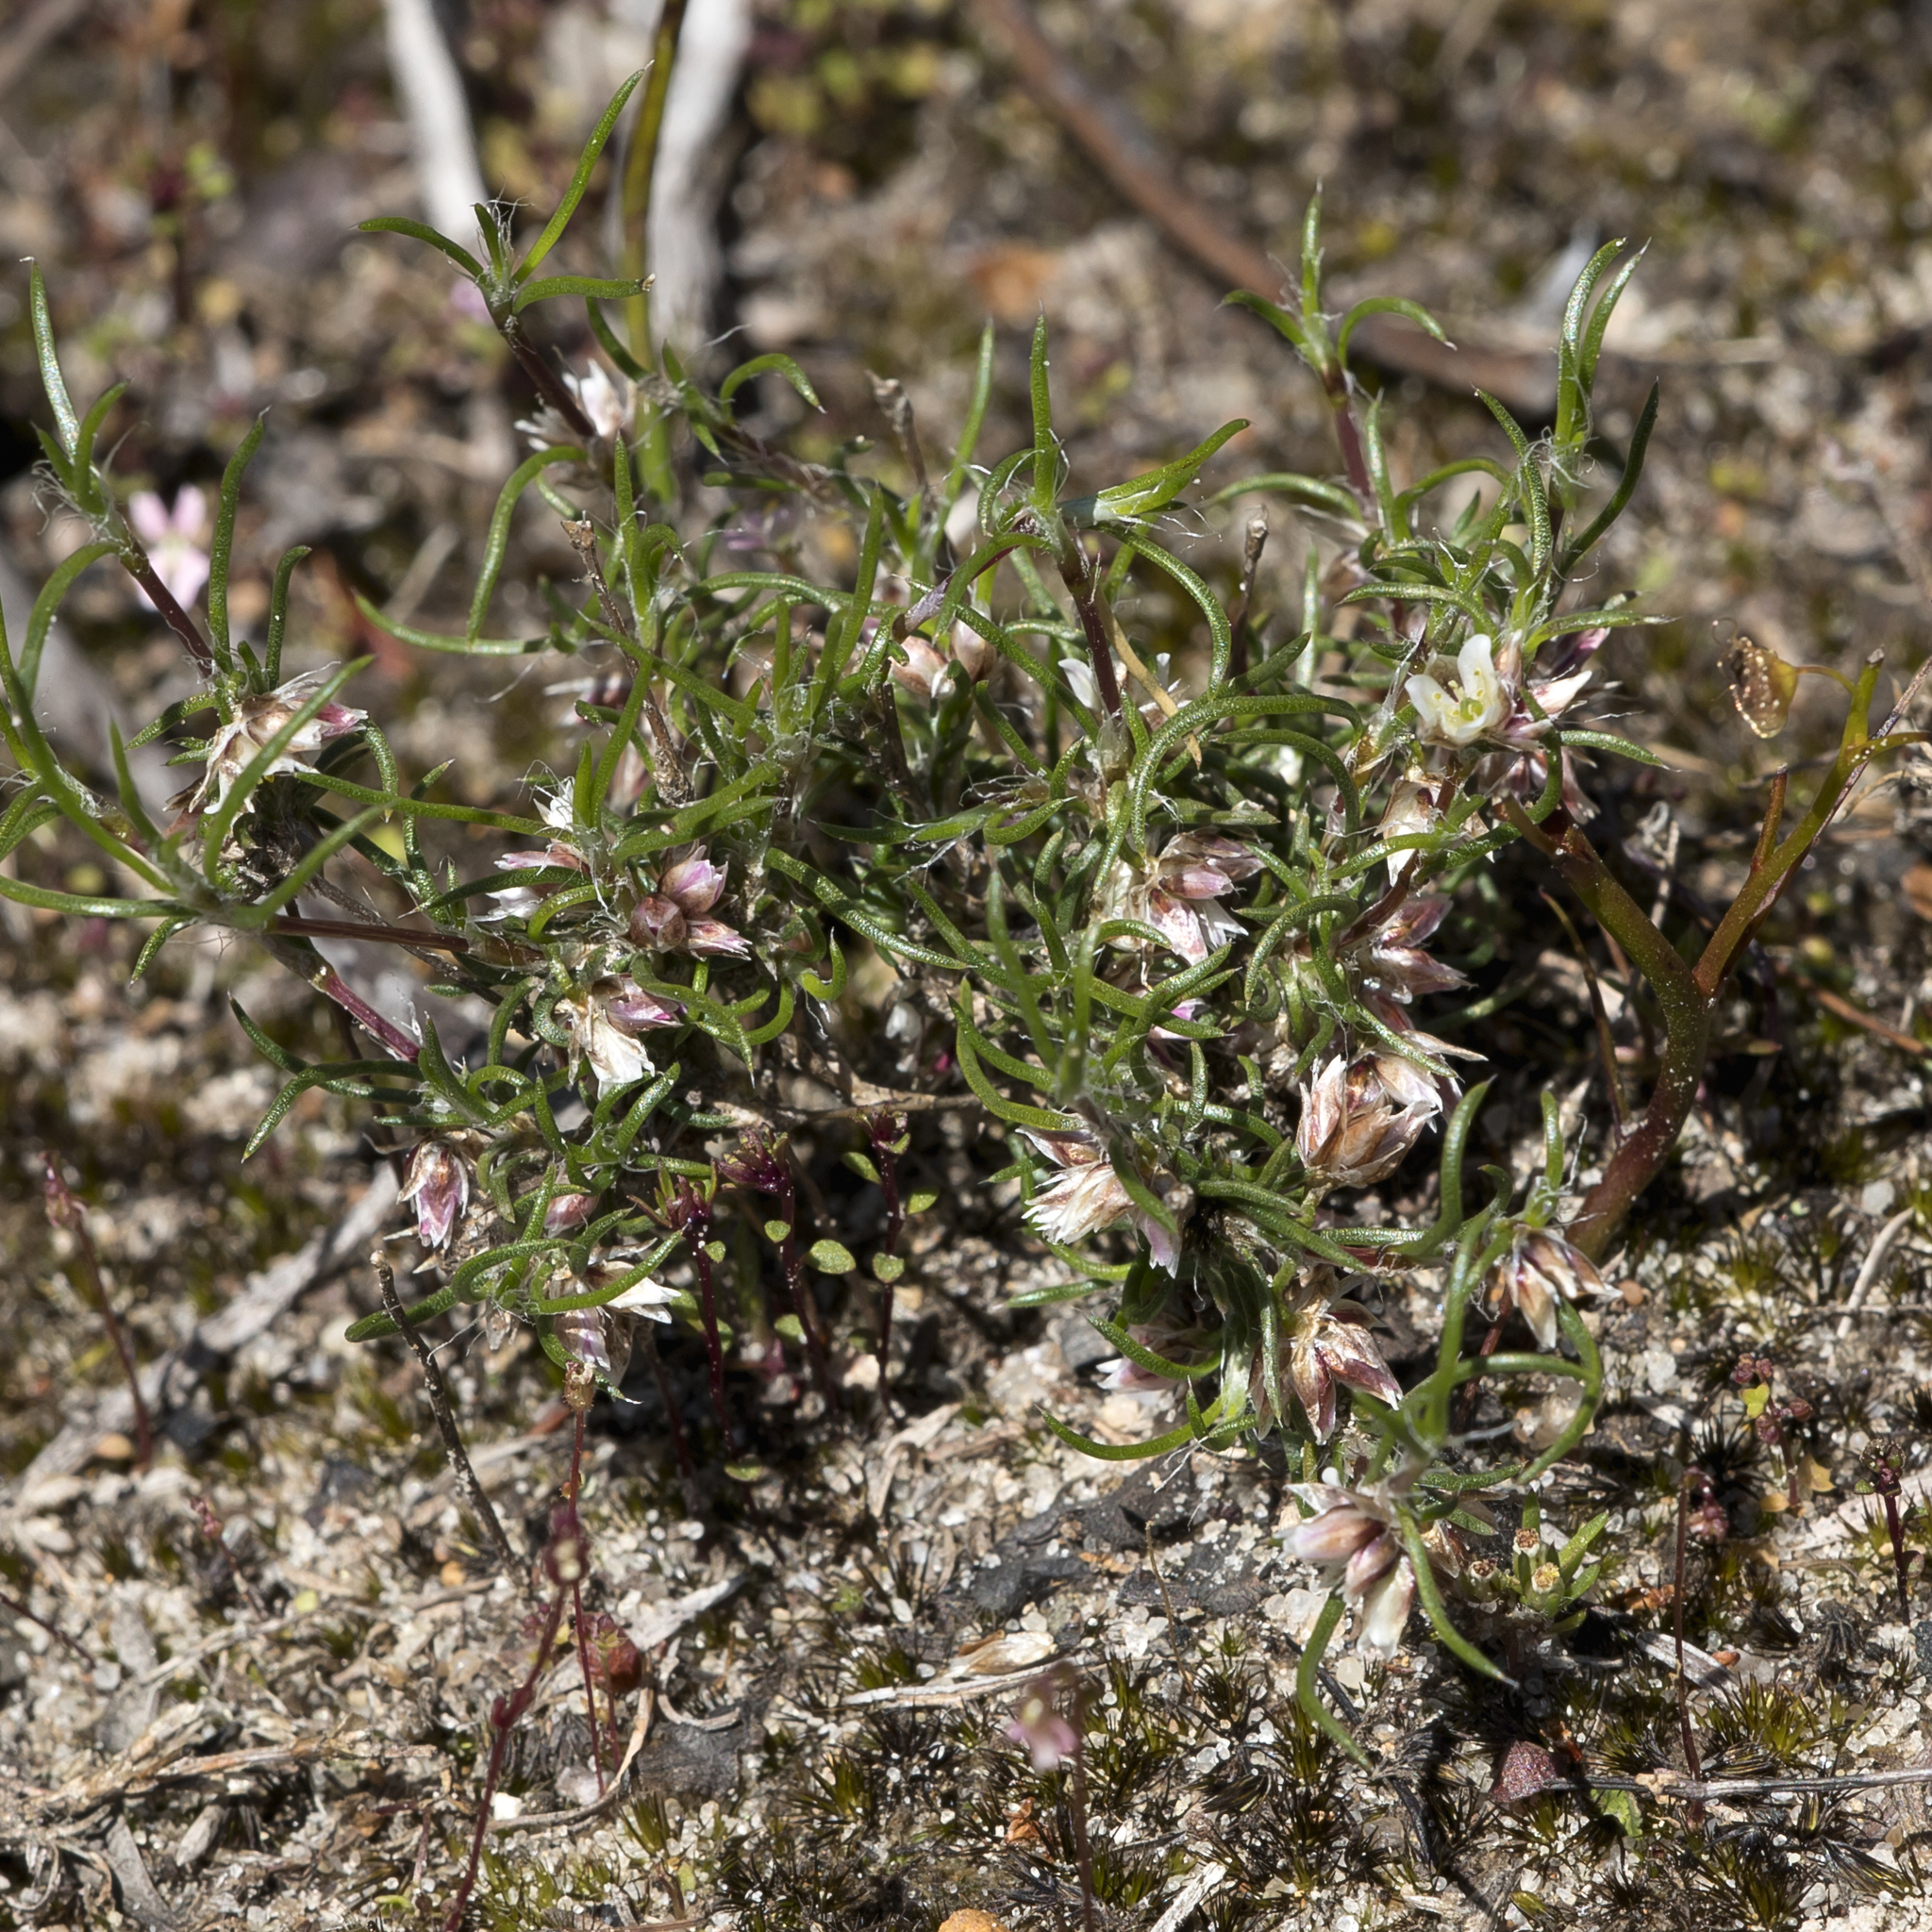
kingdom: Plantae
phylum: Tracheophyta
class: Liliopsida
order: Asparagales
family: Asparagaceae
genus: Laxmannia
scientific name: Laxmannia orientalis
